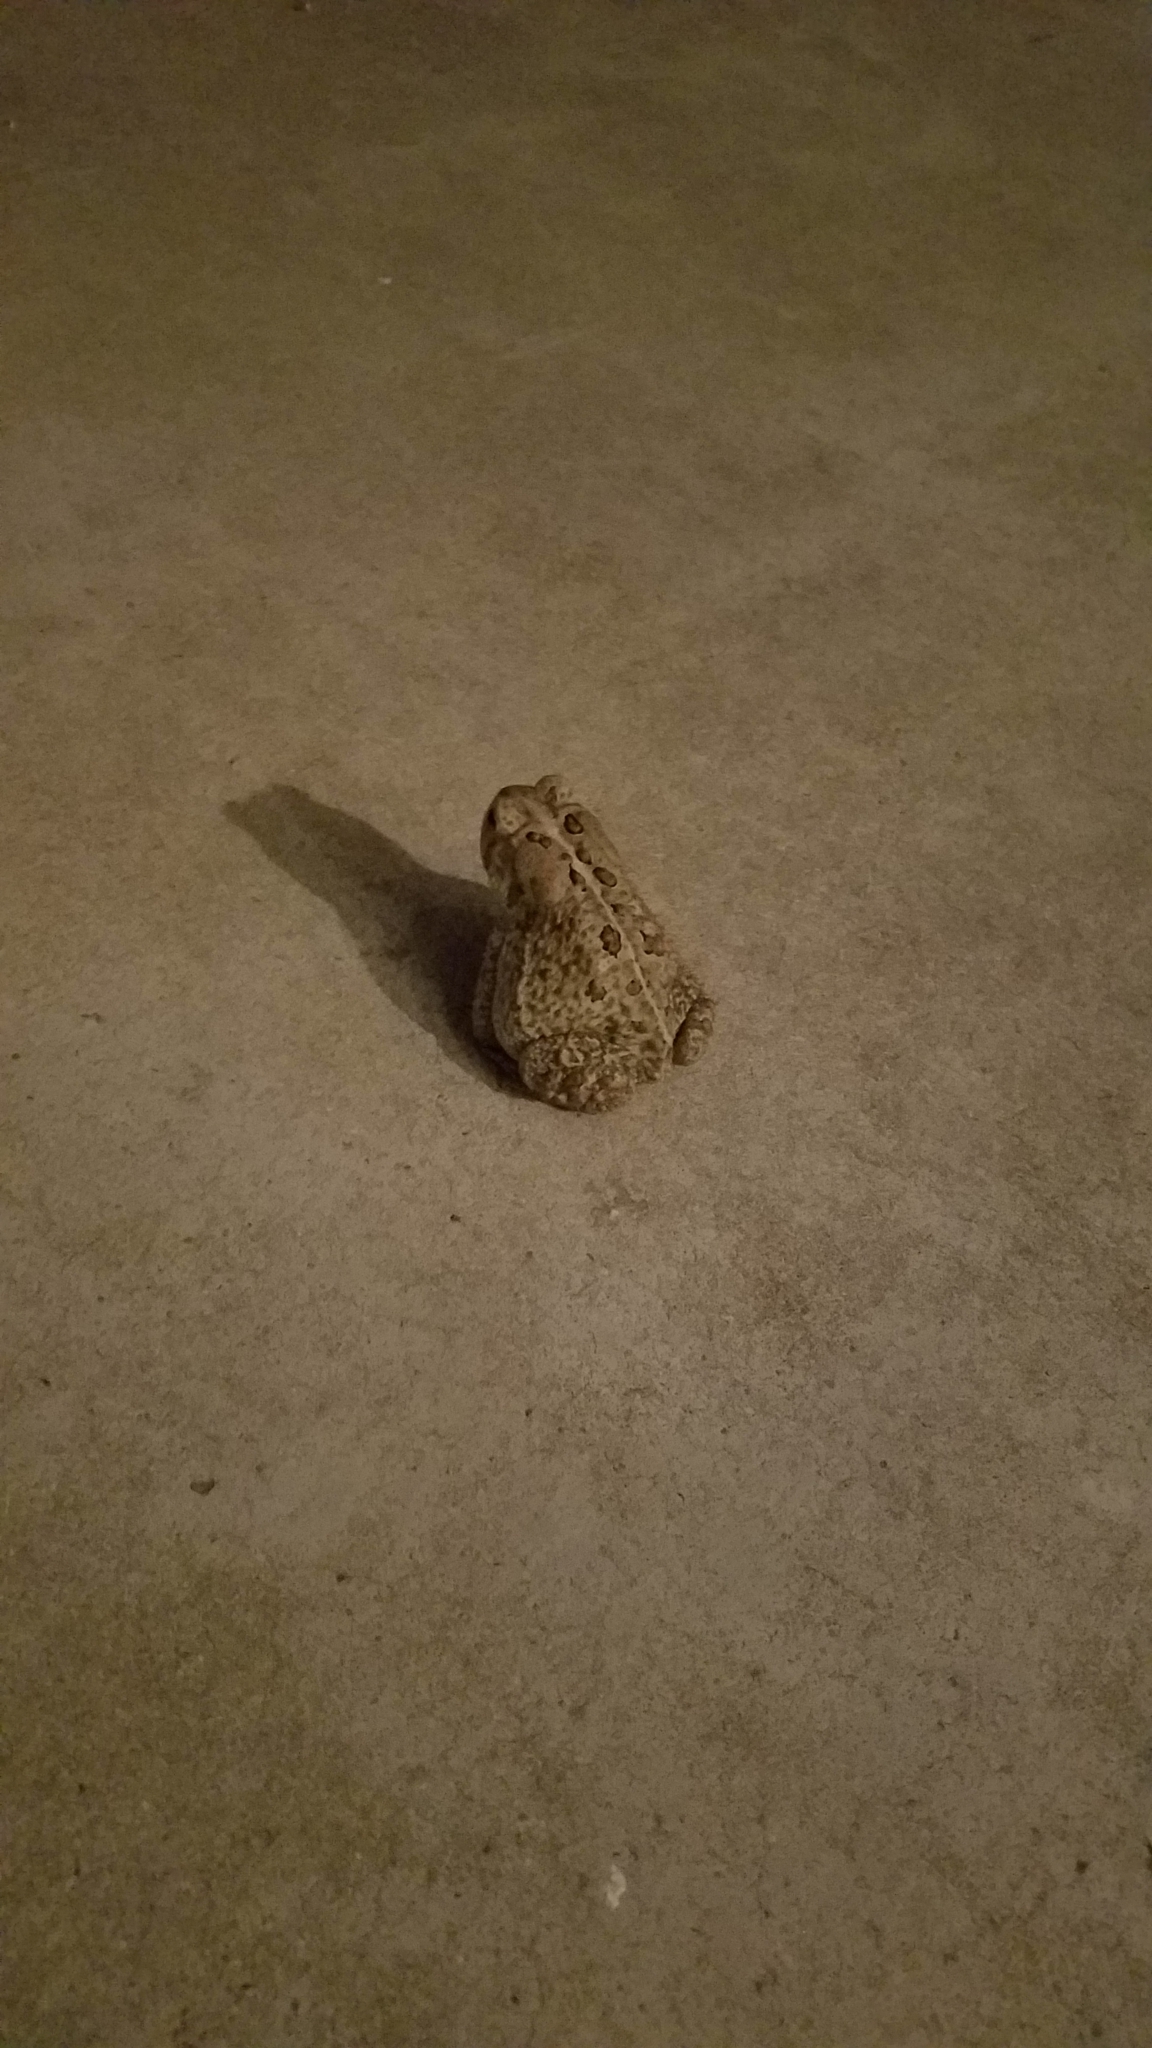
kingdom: Animalia
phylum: Chordata
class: Amphibia
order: Anura
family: Bufonidae
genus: Anaxyrus
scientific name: Anaxyrus americanus
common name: American toad
